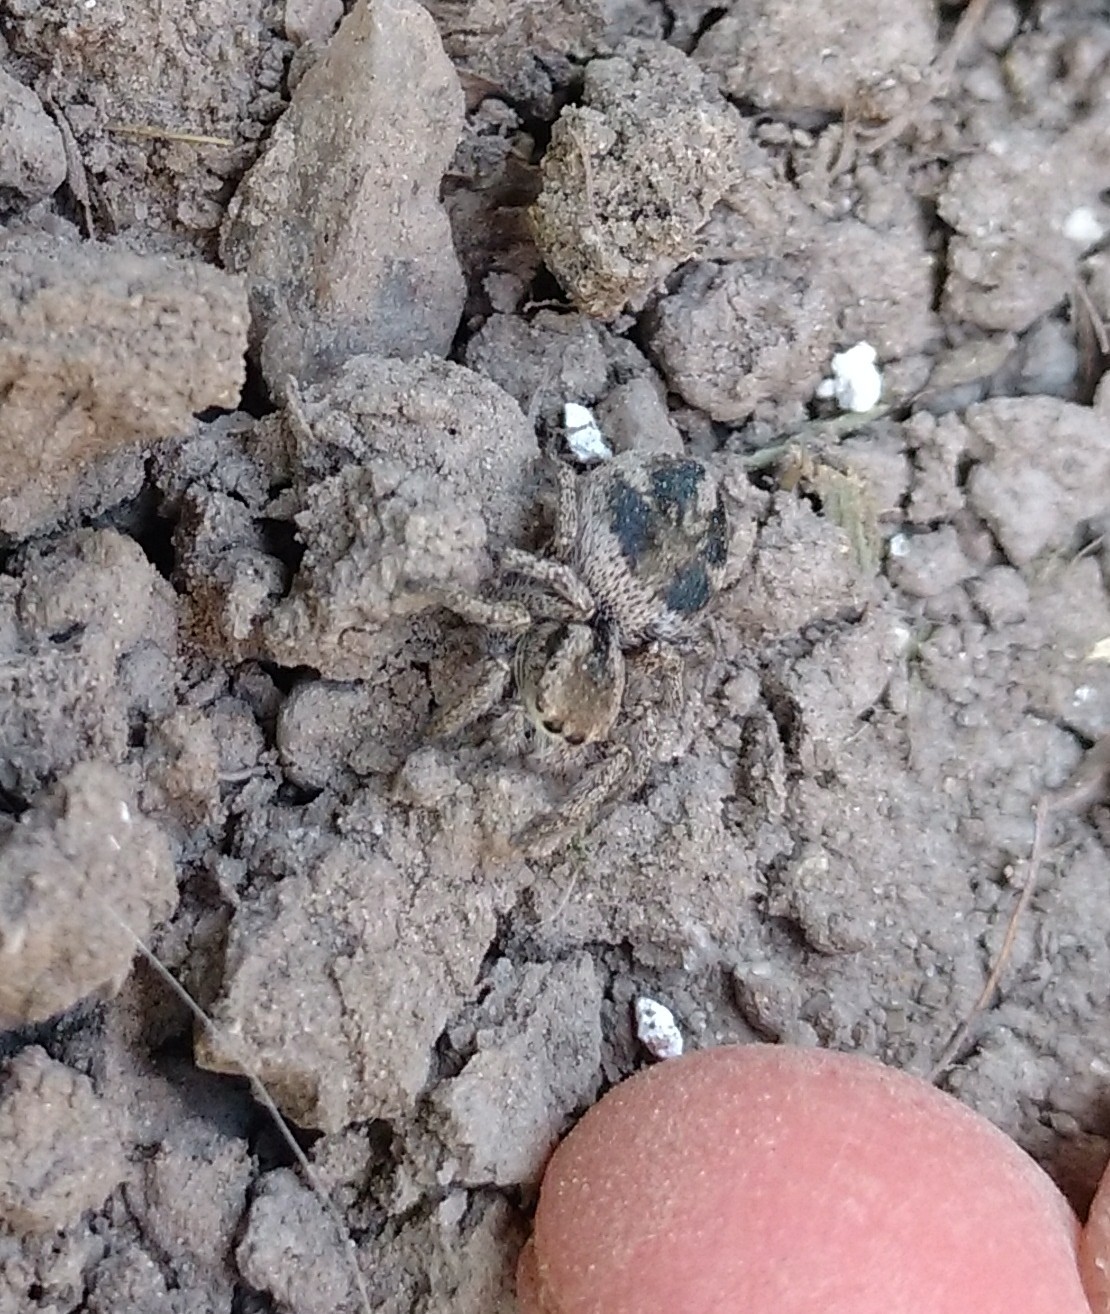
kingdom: Animalia
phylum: Arthropoda
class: Arachnida
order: Araneae
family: Salticidae
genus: Habronattus
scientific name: Habronattus festus
